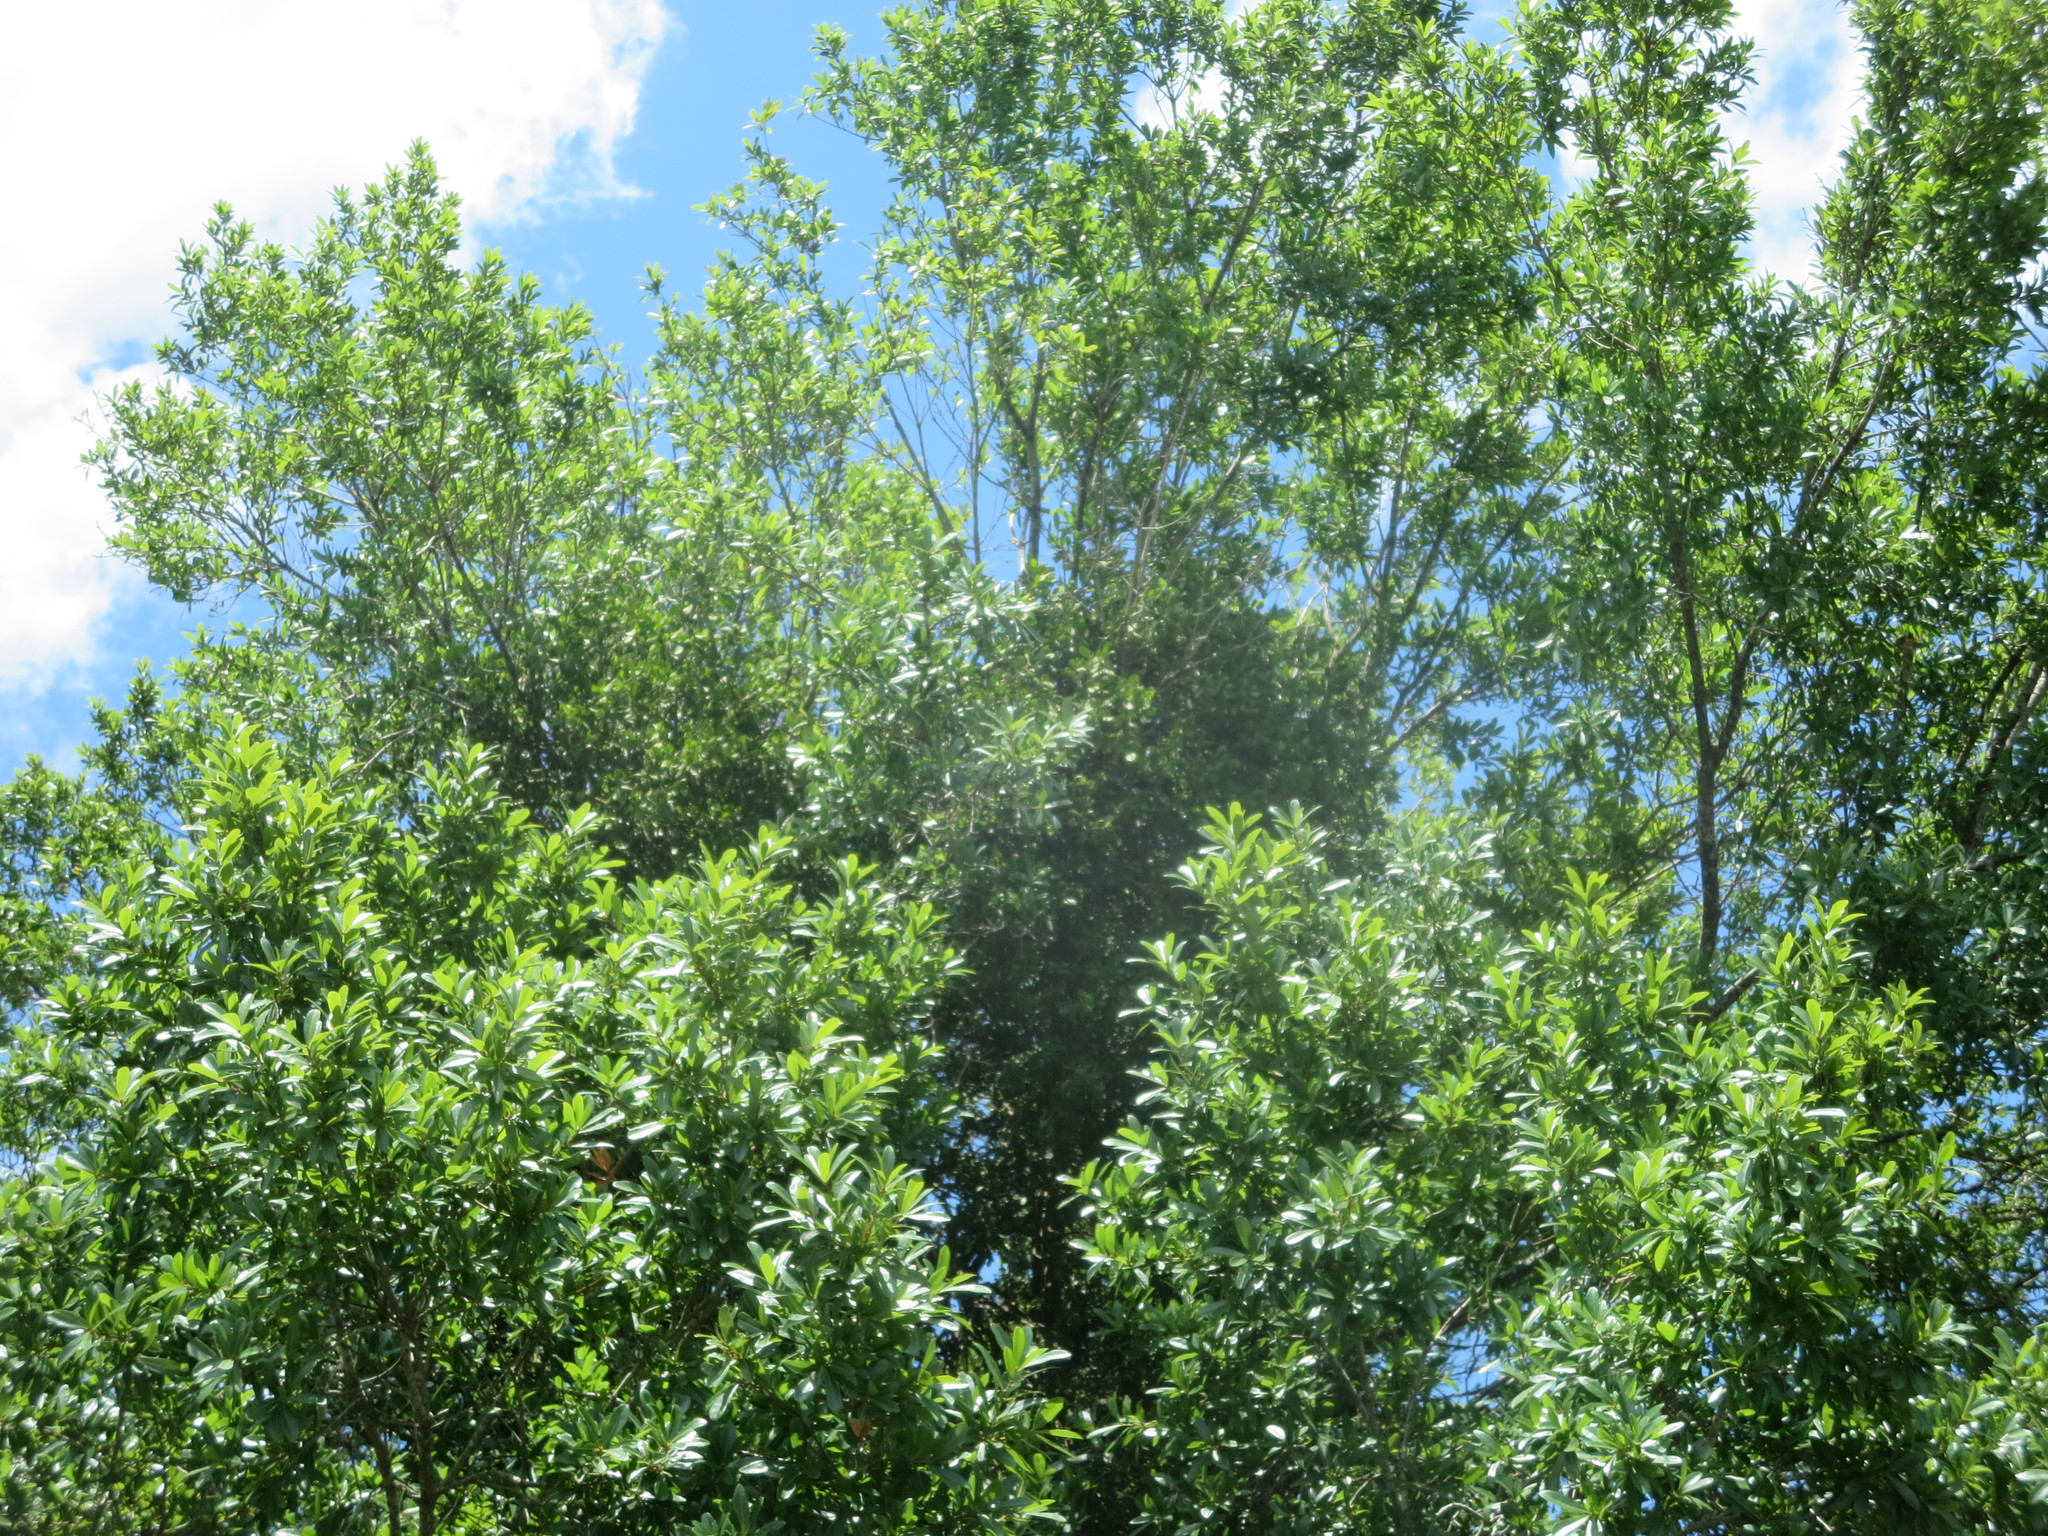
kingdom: Plantae
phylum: Tracheophyta
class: Magnoliopsida
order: Santalales
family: Viscaceae
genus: Phoradendron
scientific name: Phoradendron leucarpum
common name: Pacific mistletoe
